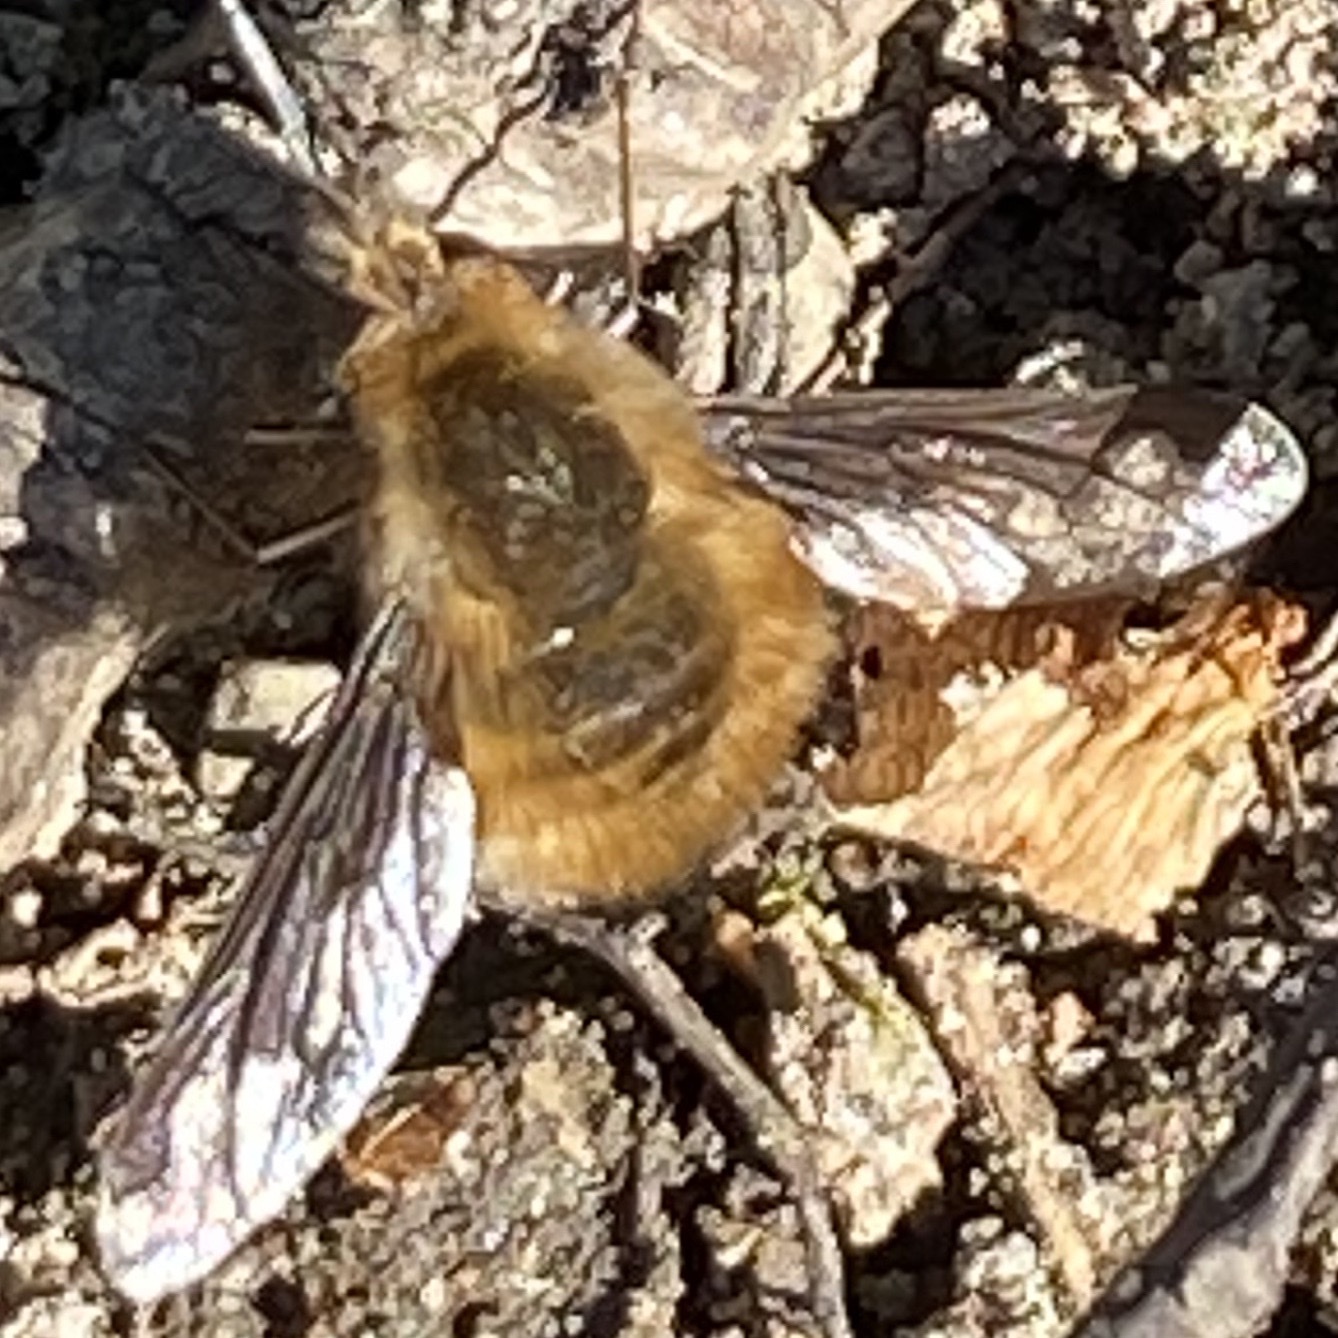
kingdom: Animalia
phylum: Arthropoda
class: Insecta
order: Diptera
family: Bombyliidae
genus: Bombylius
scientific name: Bombylius major
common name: Bee fly
